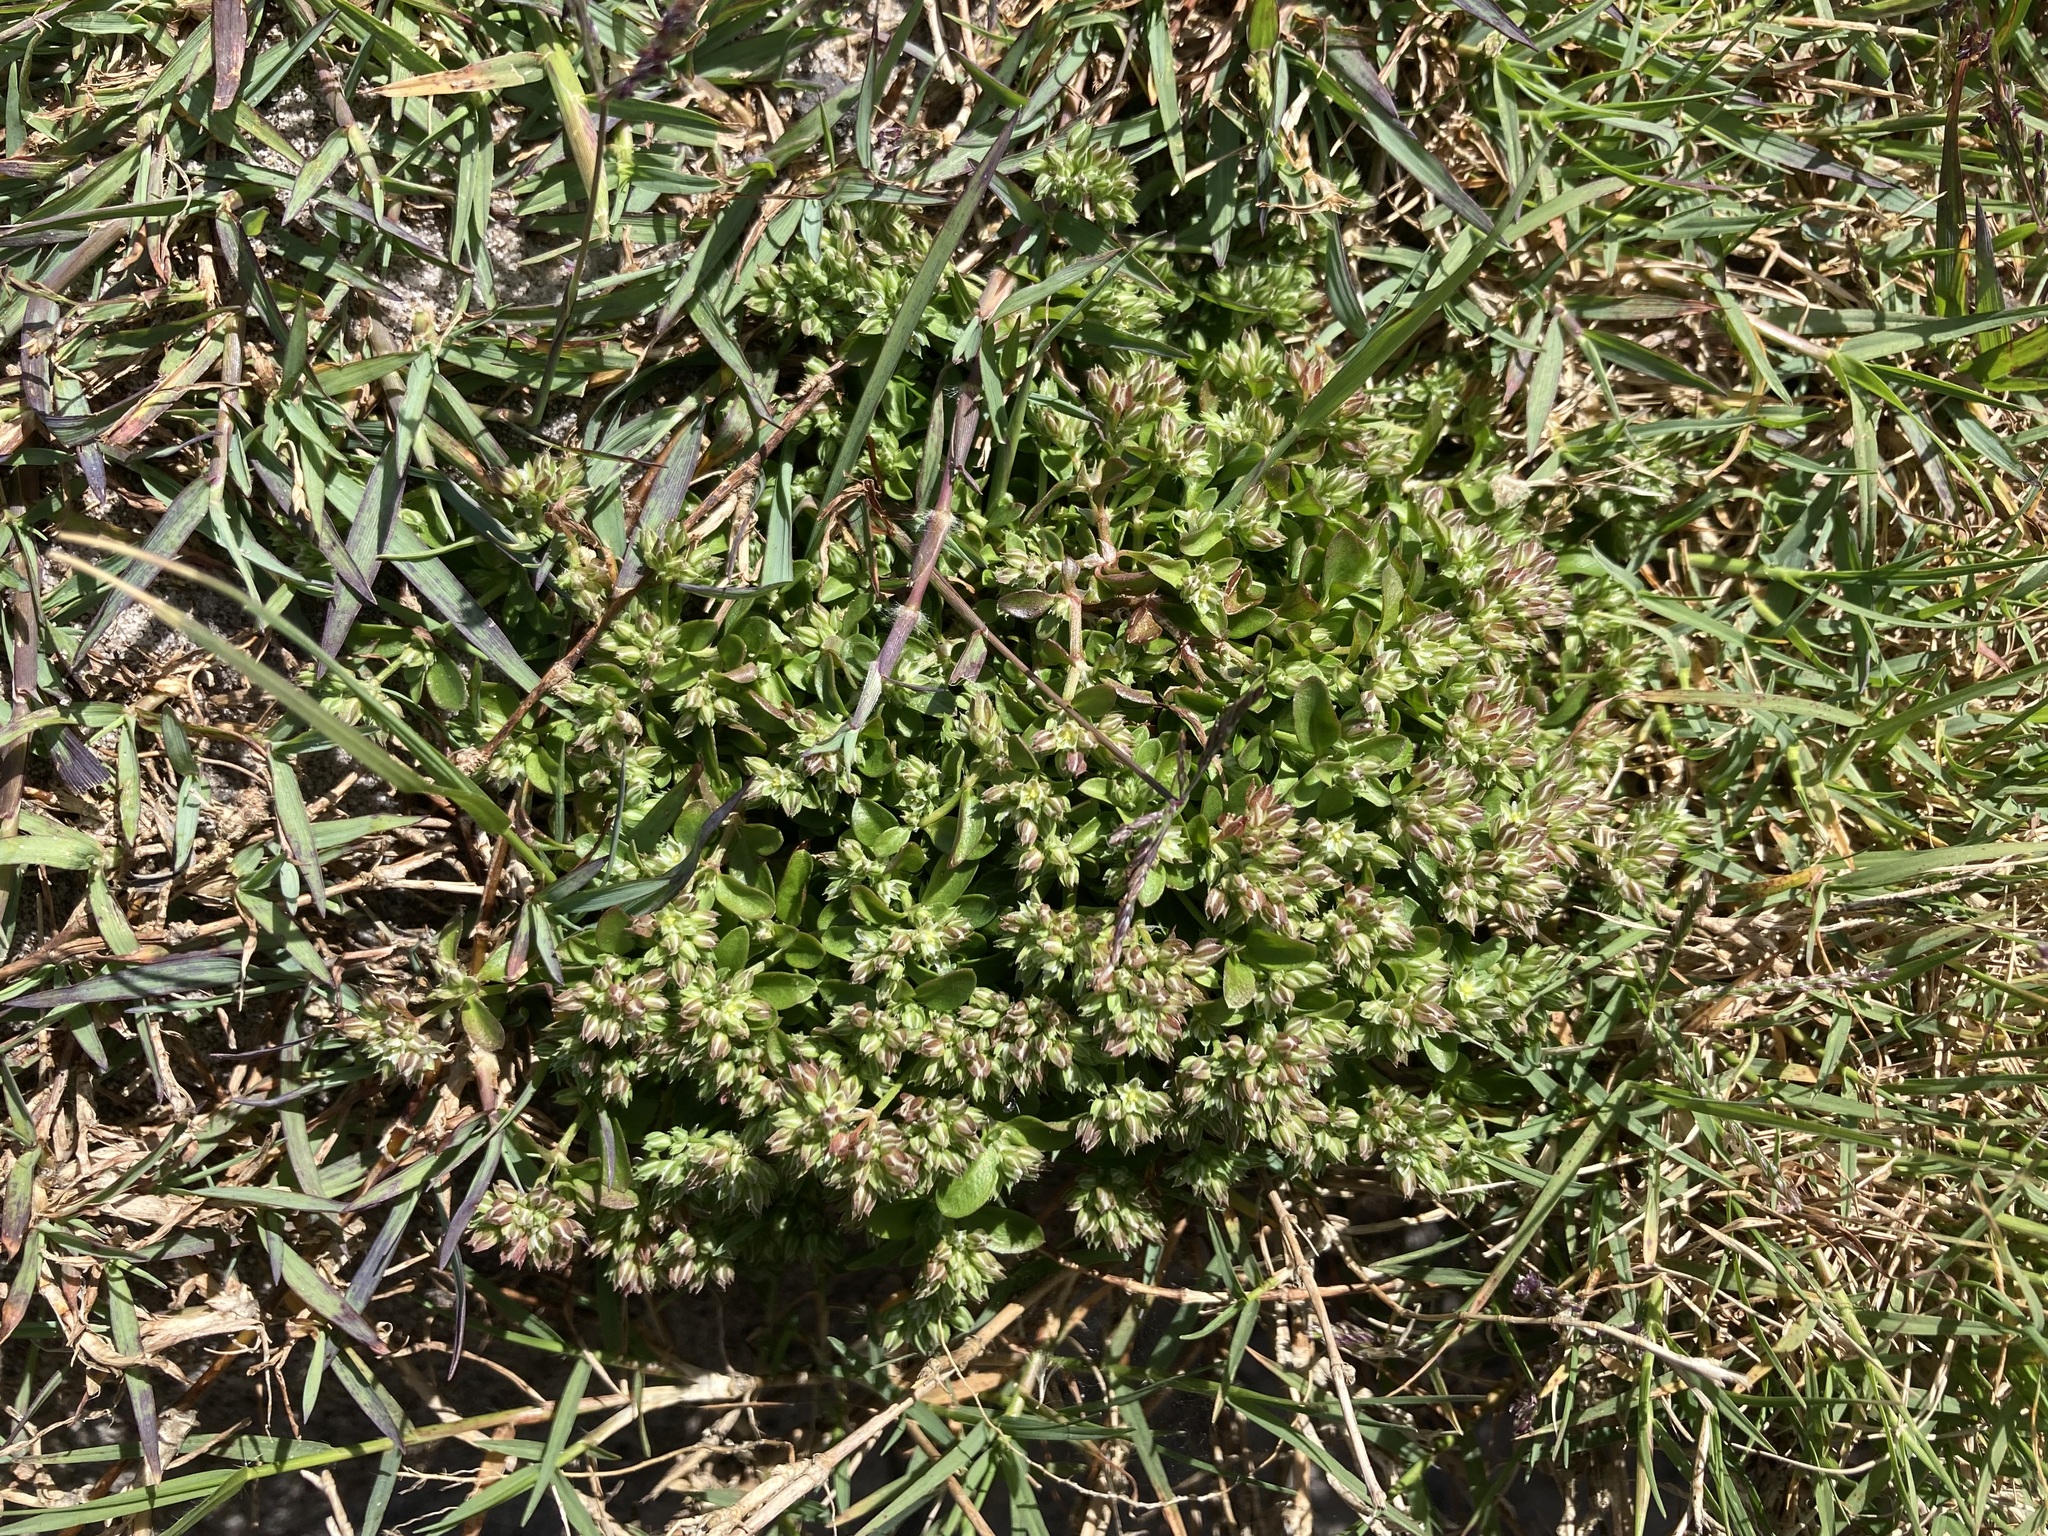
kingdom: Plantae
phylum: Tracheophyta
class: Magnoliopsida
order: Caryophyllales
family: Caryophyllaceae
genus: Polycarpon
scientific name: Polycarpon tetraphyllum
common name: Four-leaved all-seed
